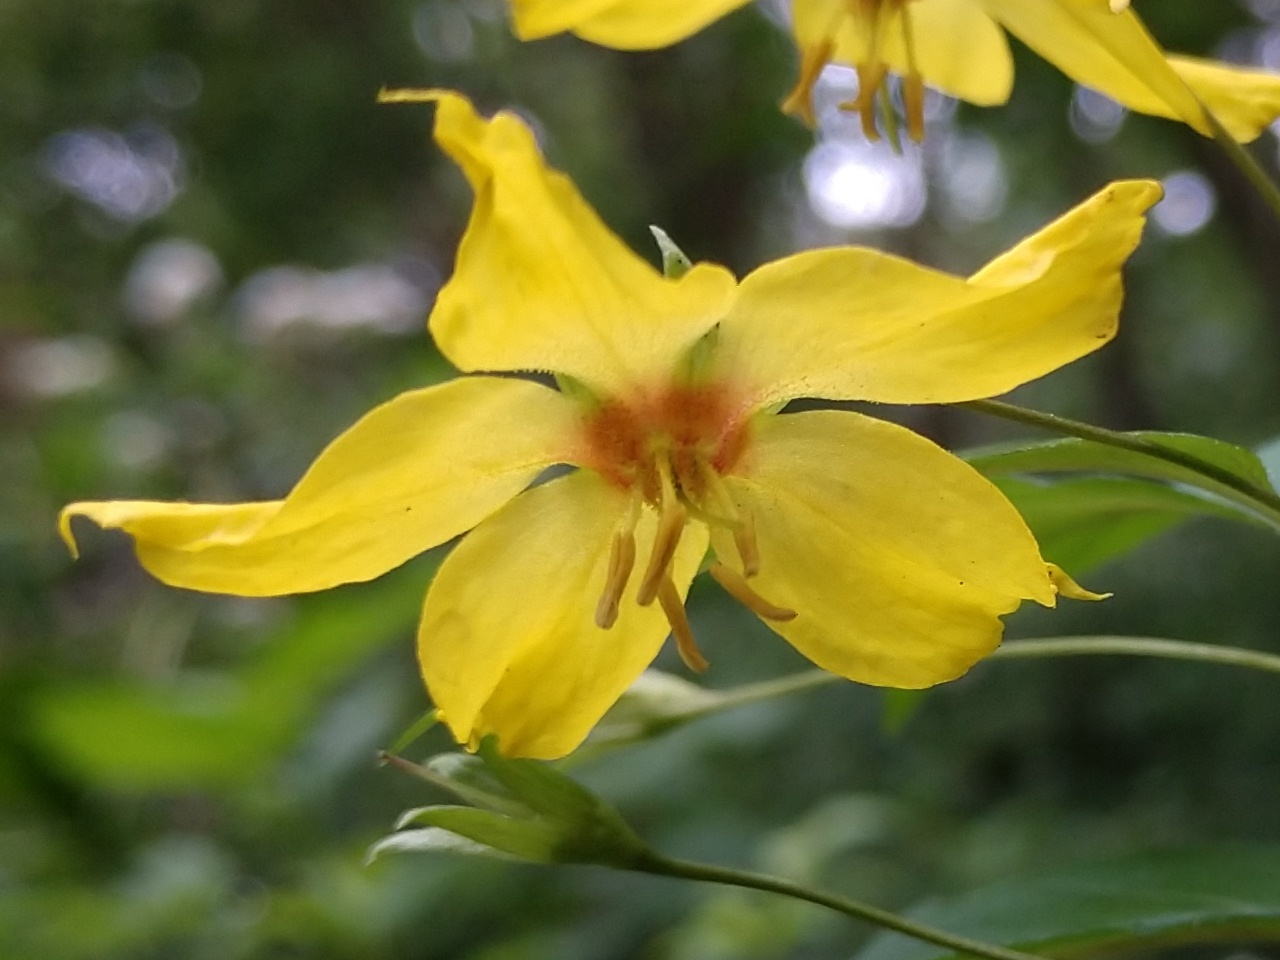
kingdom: Plantae
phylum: Tracheophyta
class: Magnoliopsida
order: Ericales
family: Primulaceae
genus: Lysimachia
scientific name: Lysimachia ciliata
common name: Fringed loosestrife
